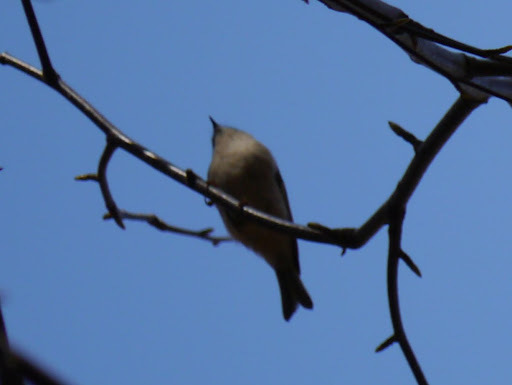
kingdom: Animalia
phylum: Chordata
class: Aves
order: Passeriformes
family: Regulidae
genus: Regulus
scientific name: Regulus satrapa
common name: Golden-crowned kinglet
